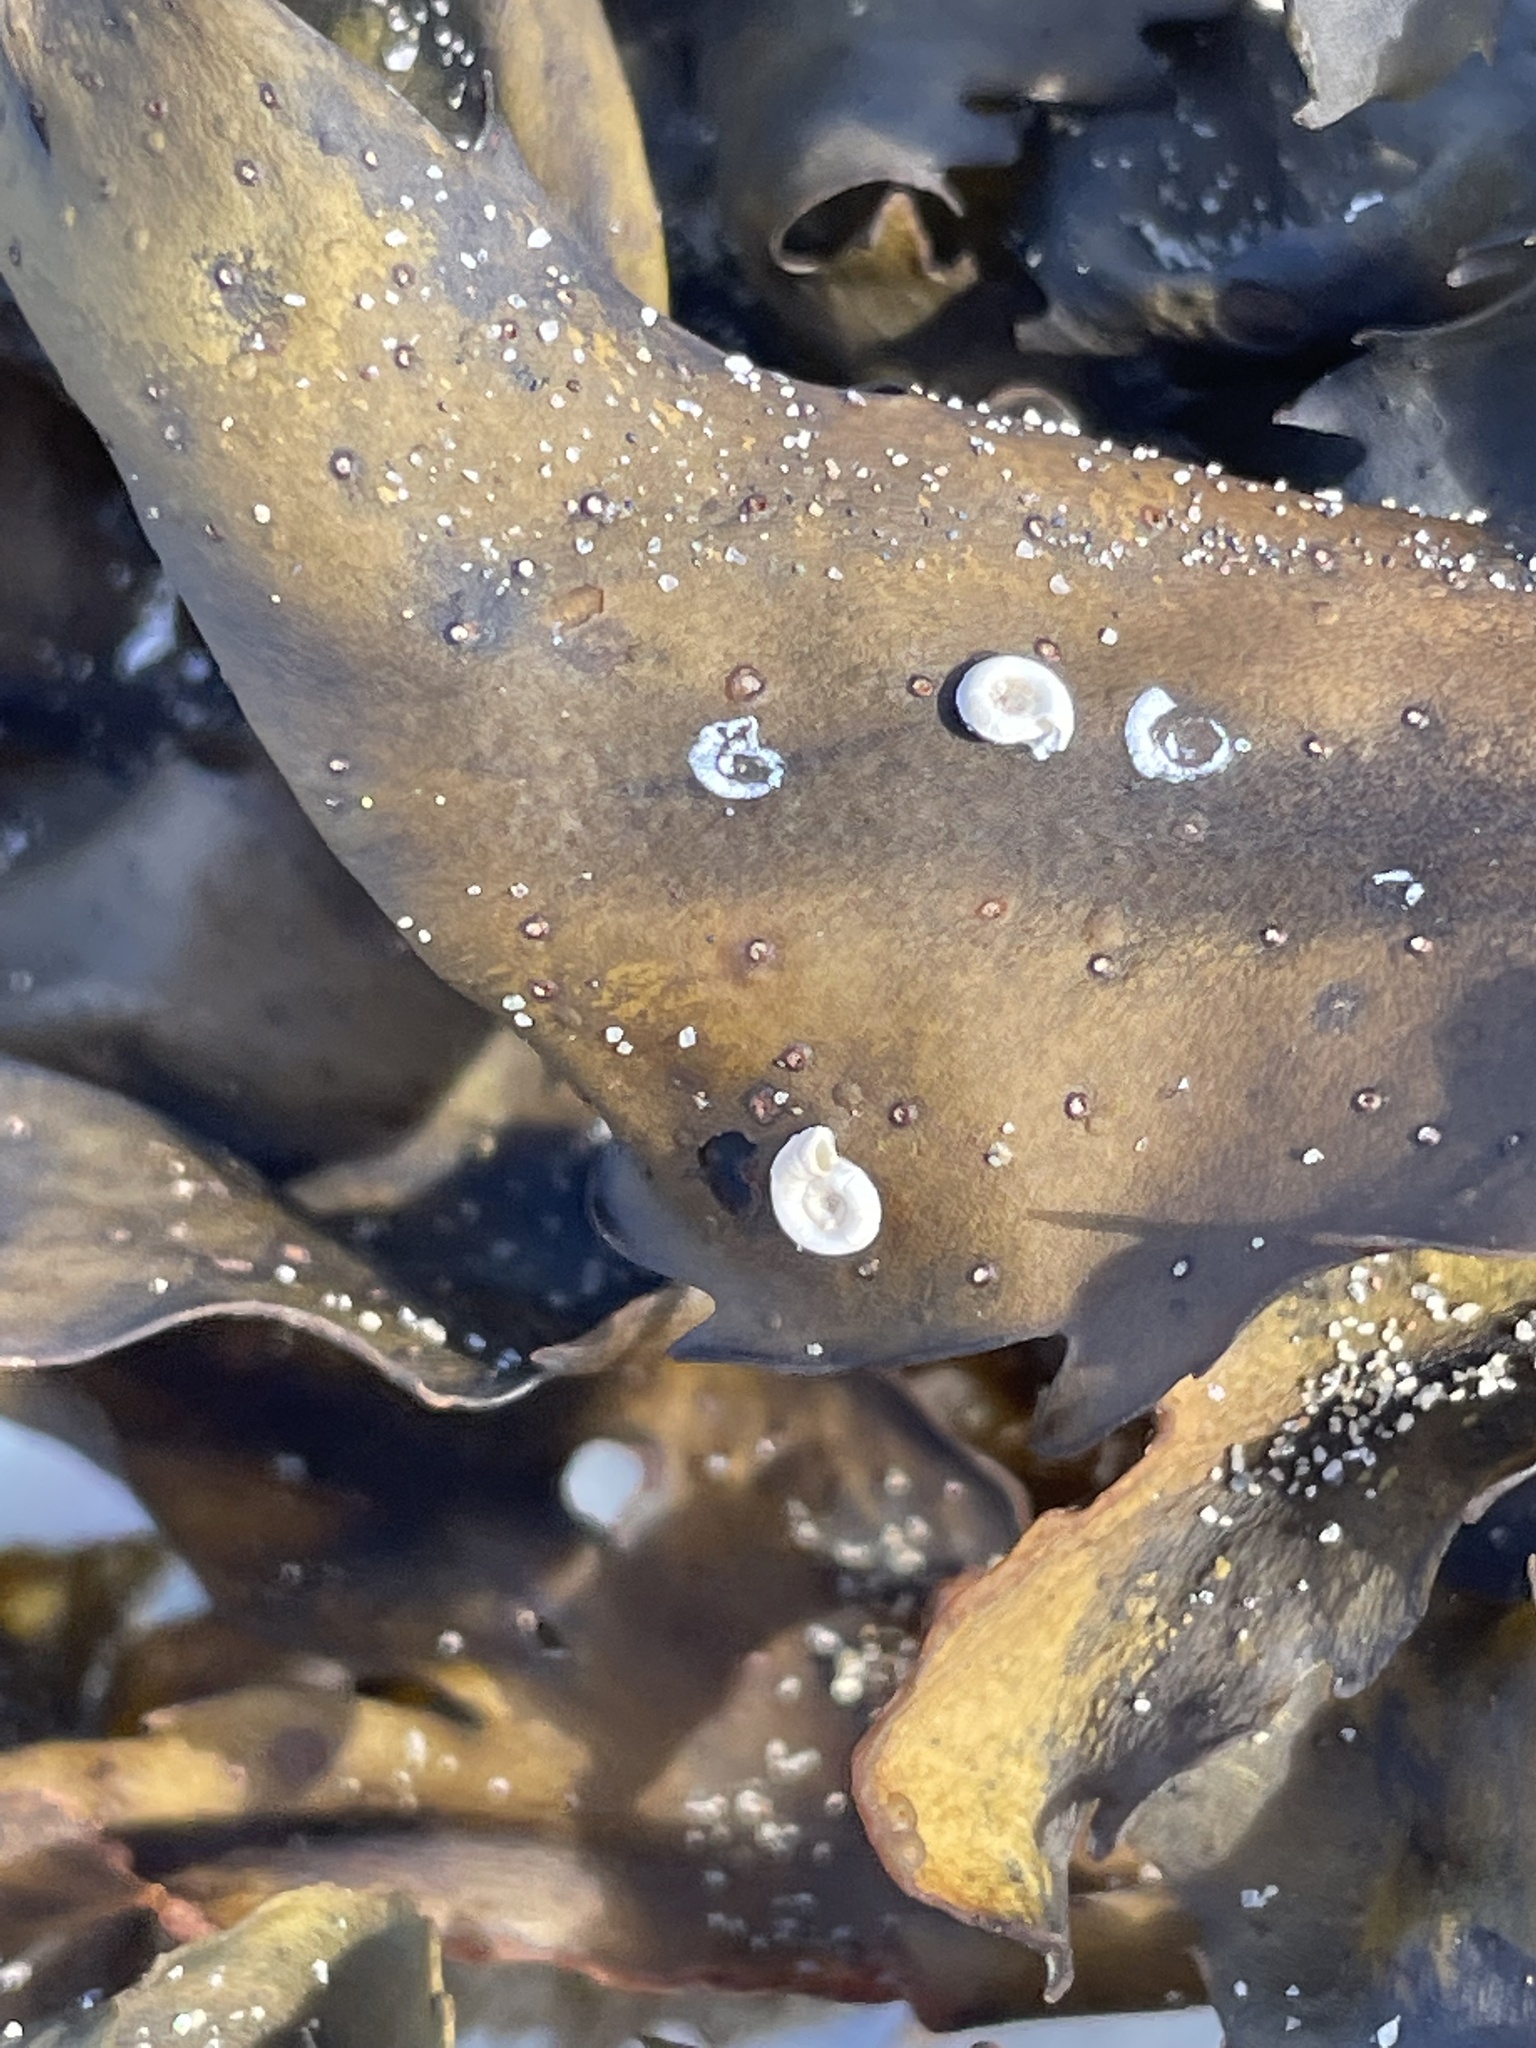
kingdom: Animalia
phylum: Annelida
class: Polychaeta
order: Sabellida
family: Serpulidae
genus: Spirorbis
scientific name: Spirorbis spirorbis
